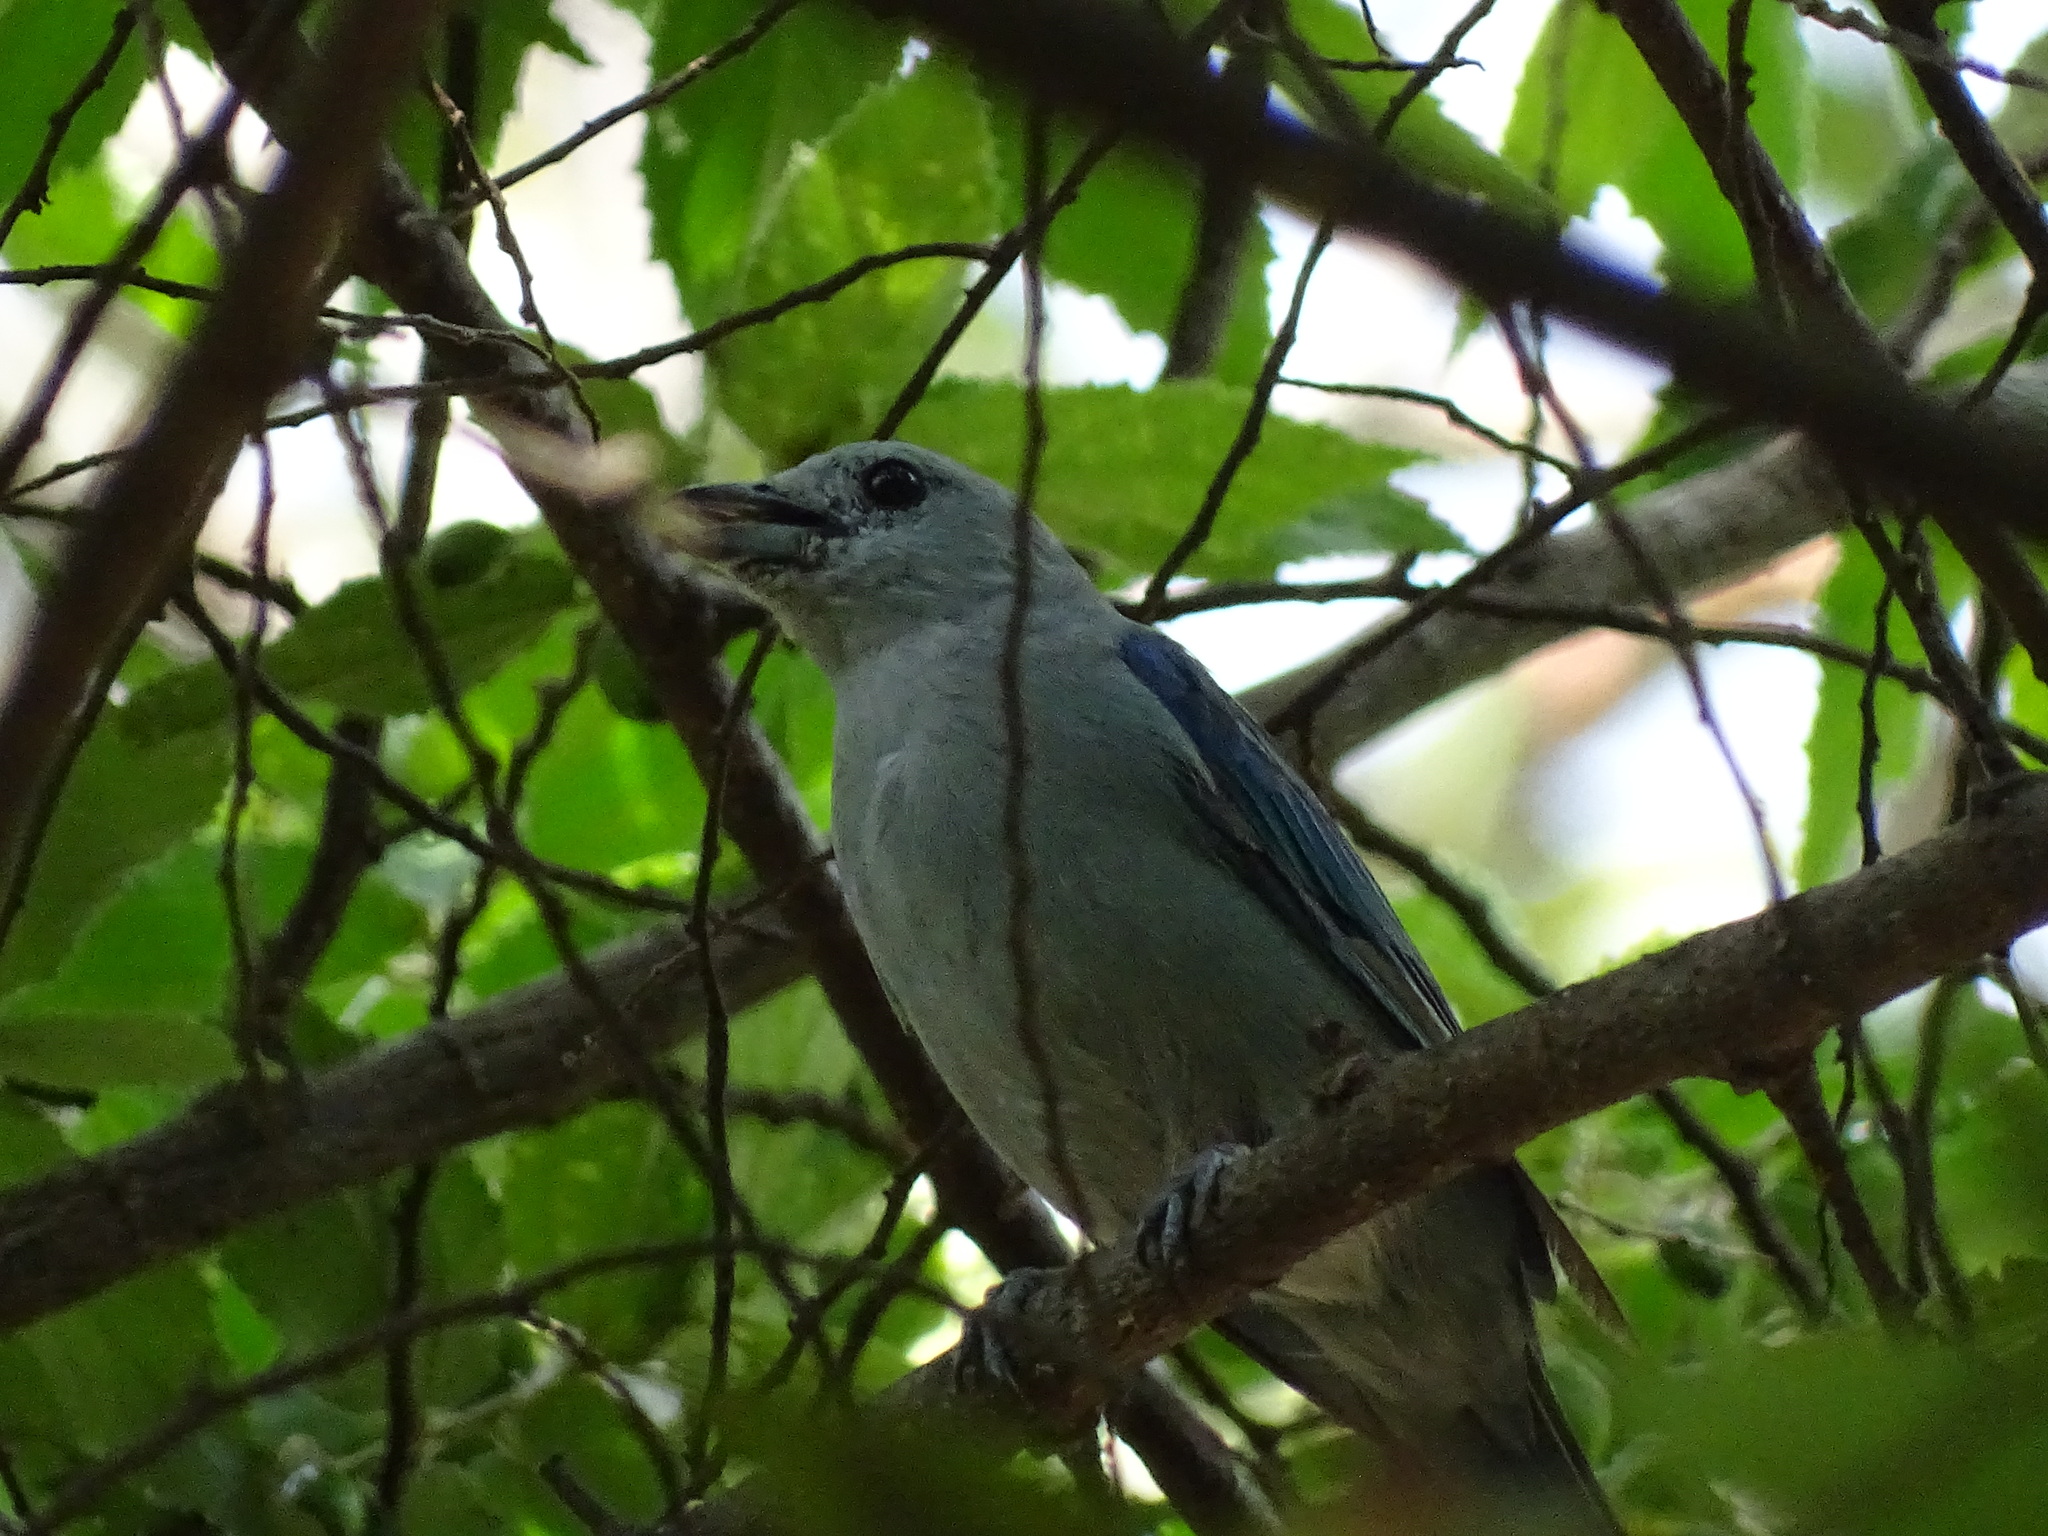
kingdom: Animalia
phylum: Chordata
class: Aves
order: Passeriformes
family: Thraupidae
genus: Thraupis
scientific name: Thraupis episcopus
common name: Blue-grey tanager
